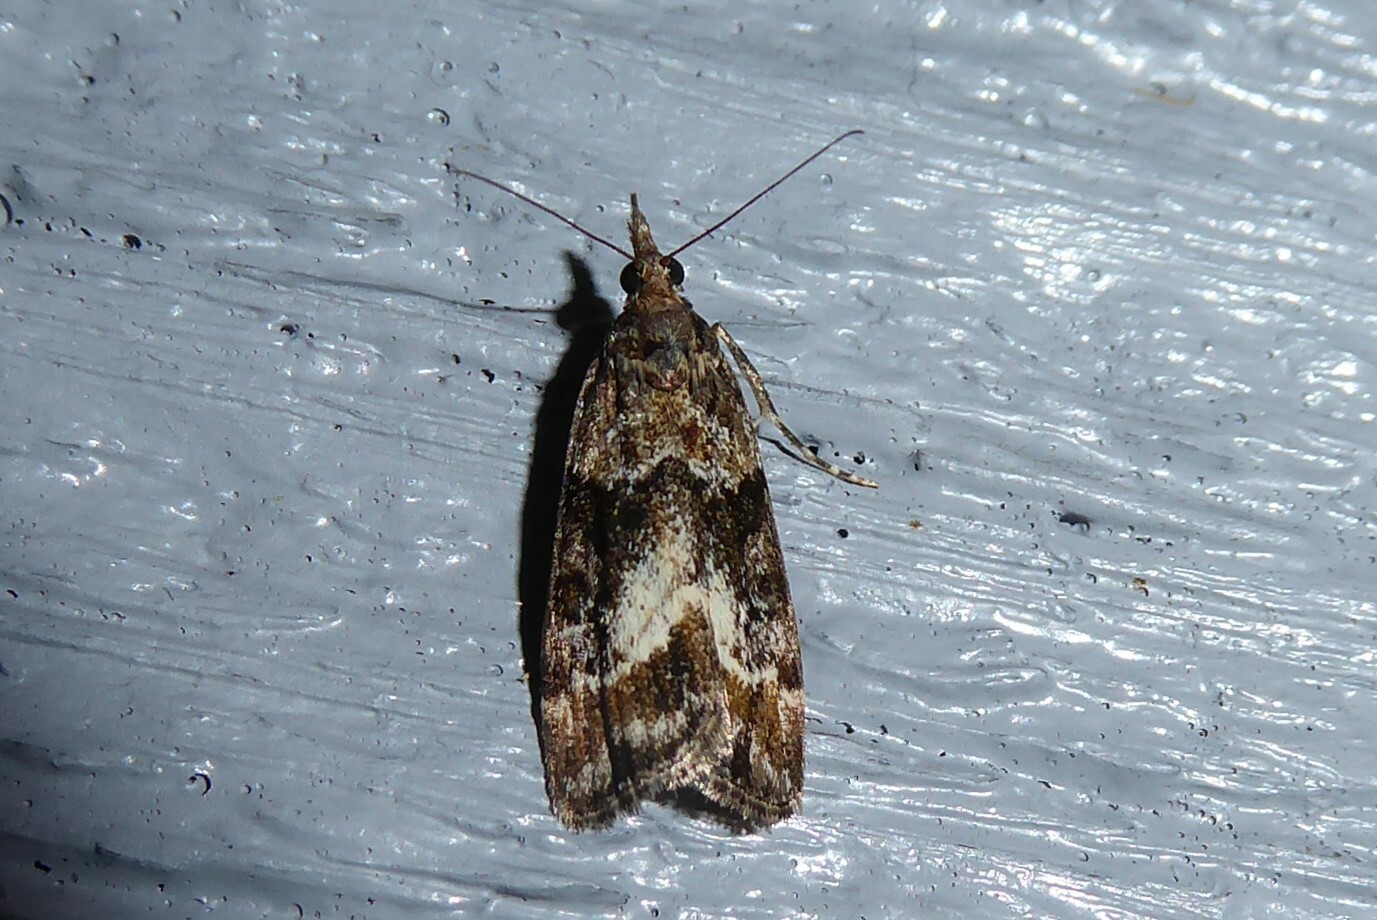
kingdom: Animalia
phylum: Arthropoda
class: Insecta
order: Lepidoptera
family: Crambidae
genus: Eudonia
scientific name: Eudonia legnota
